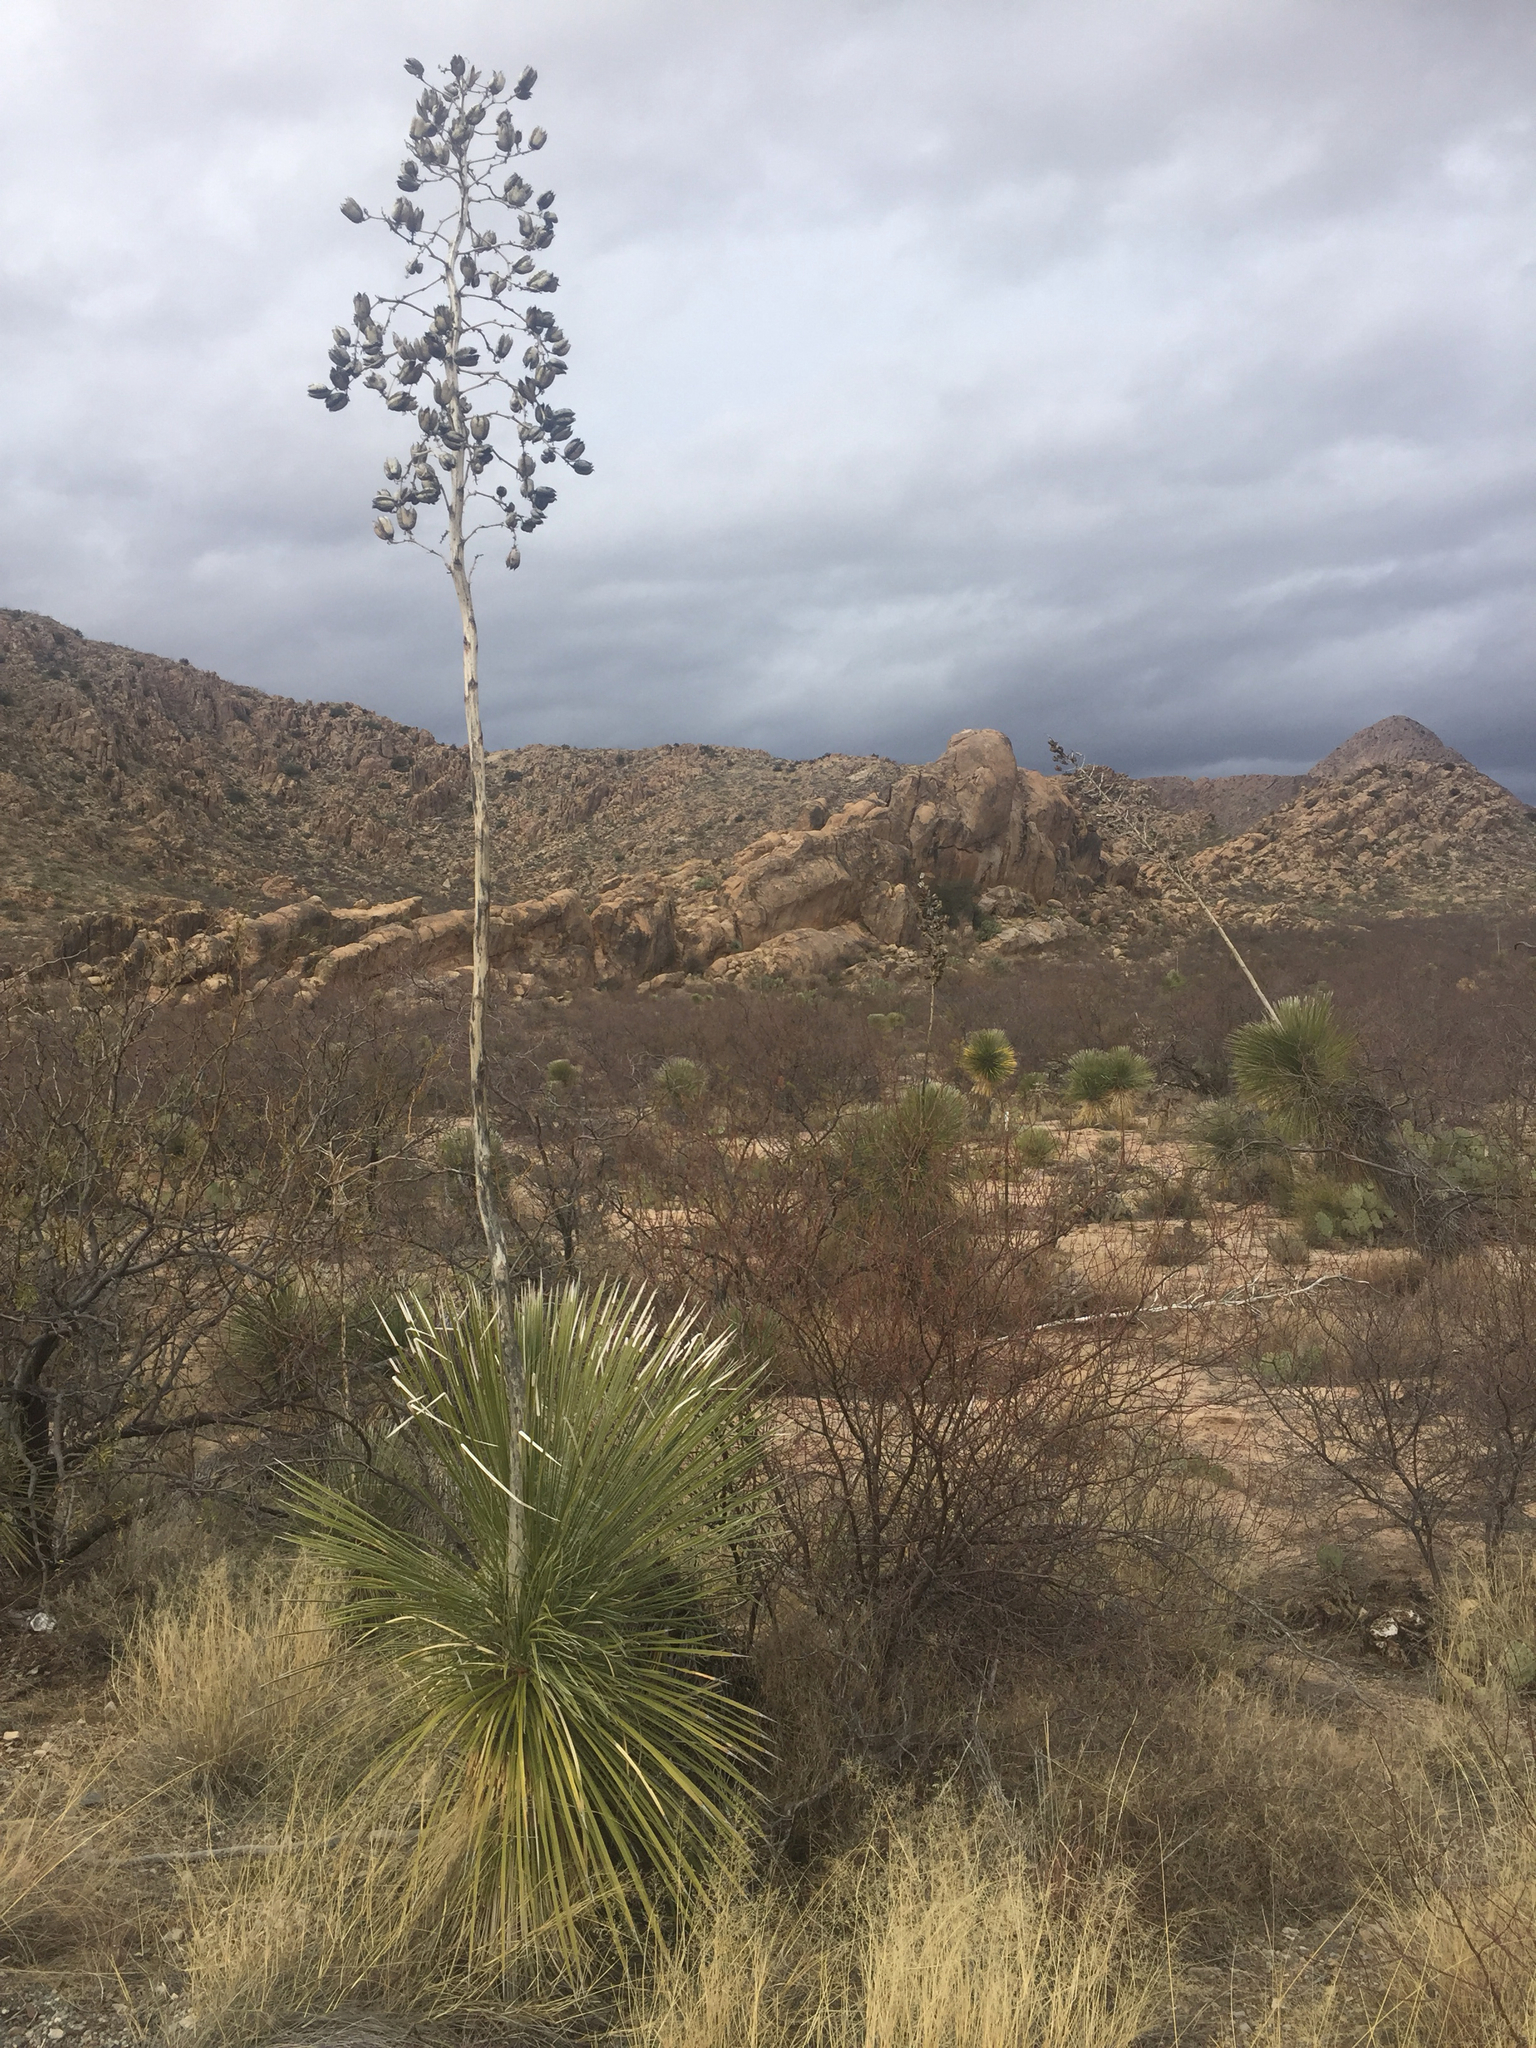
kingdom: Plantae
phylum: Tracheophyta
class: Liliopsida
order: Asparagales
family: Asparagaceae
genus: Yucca
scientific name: Yucca elata
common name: Palmella
